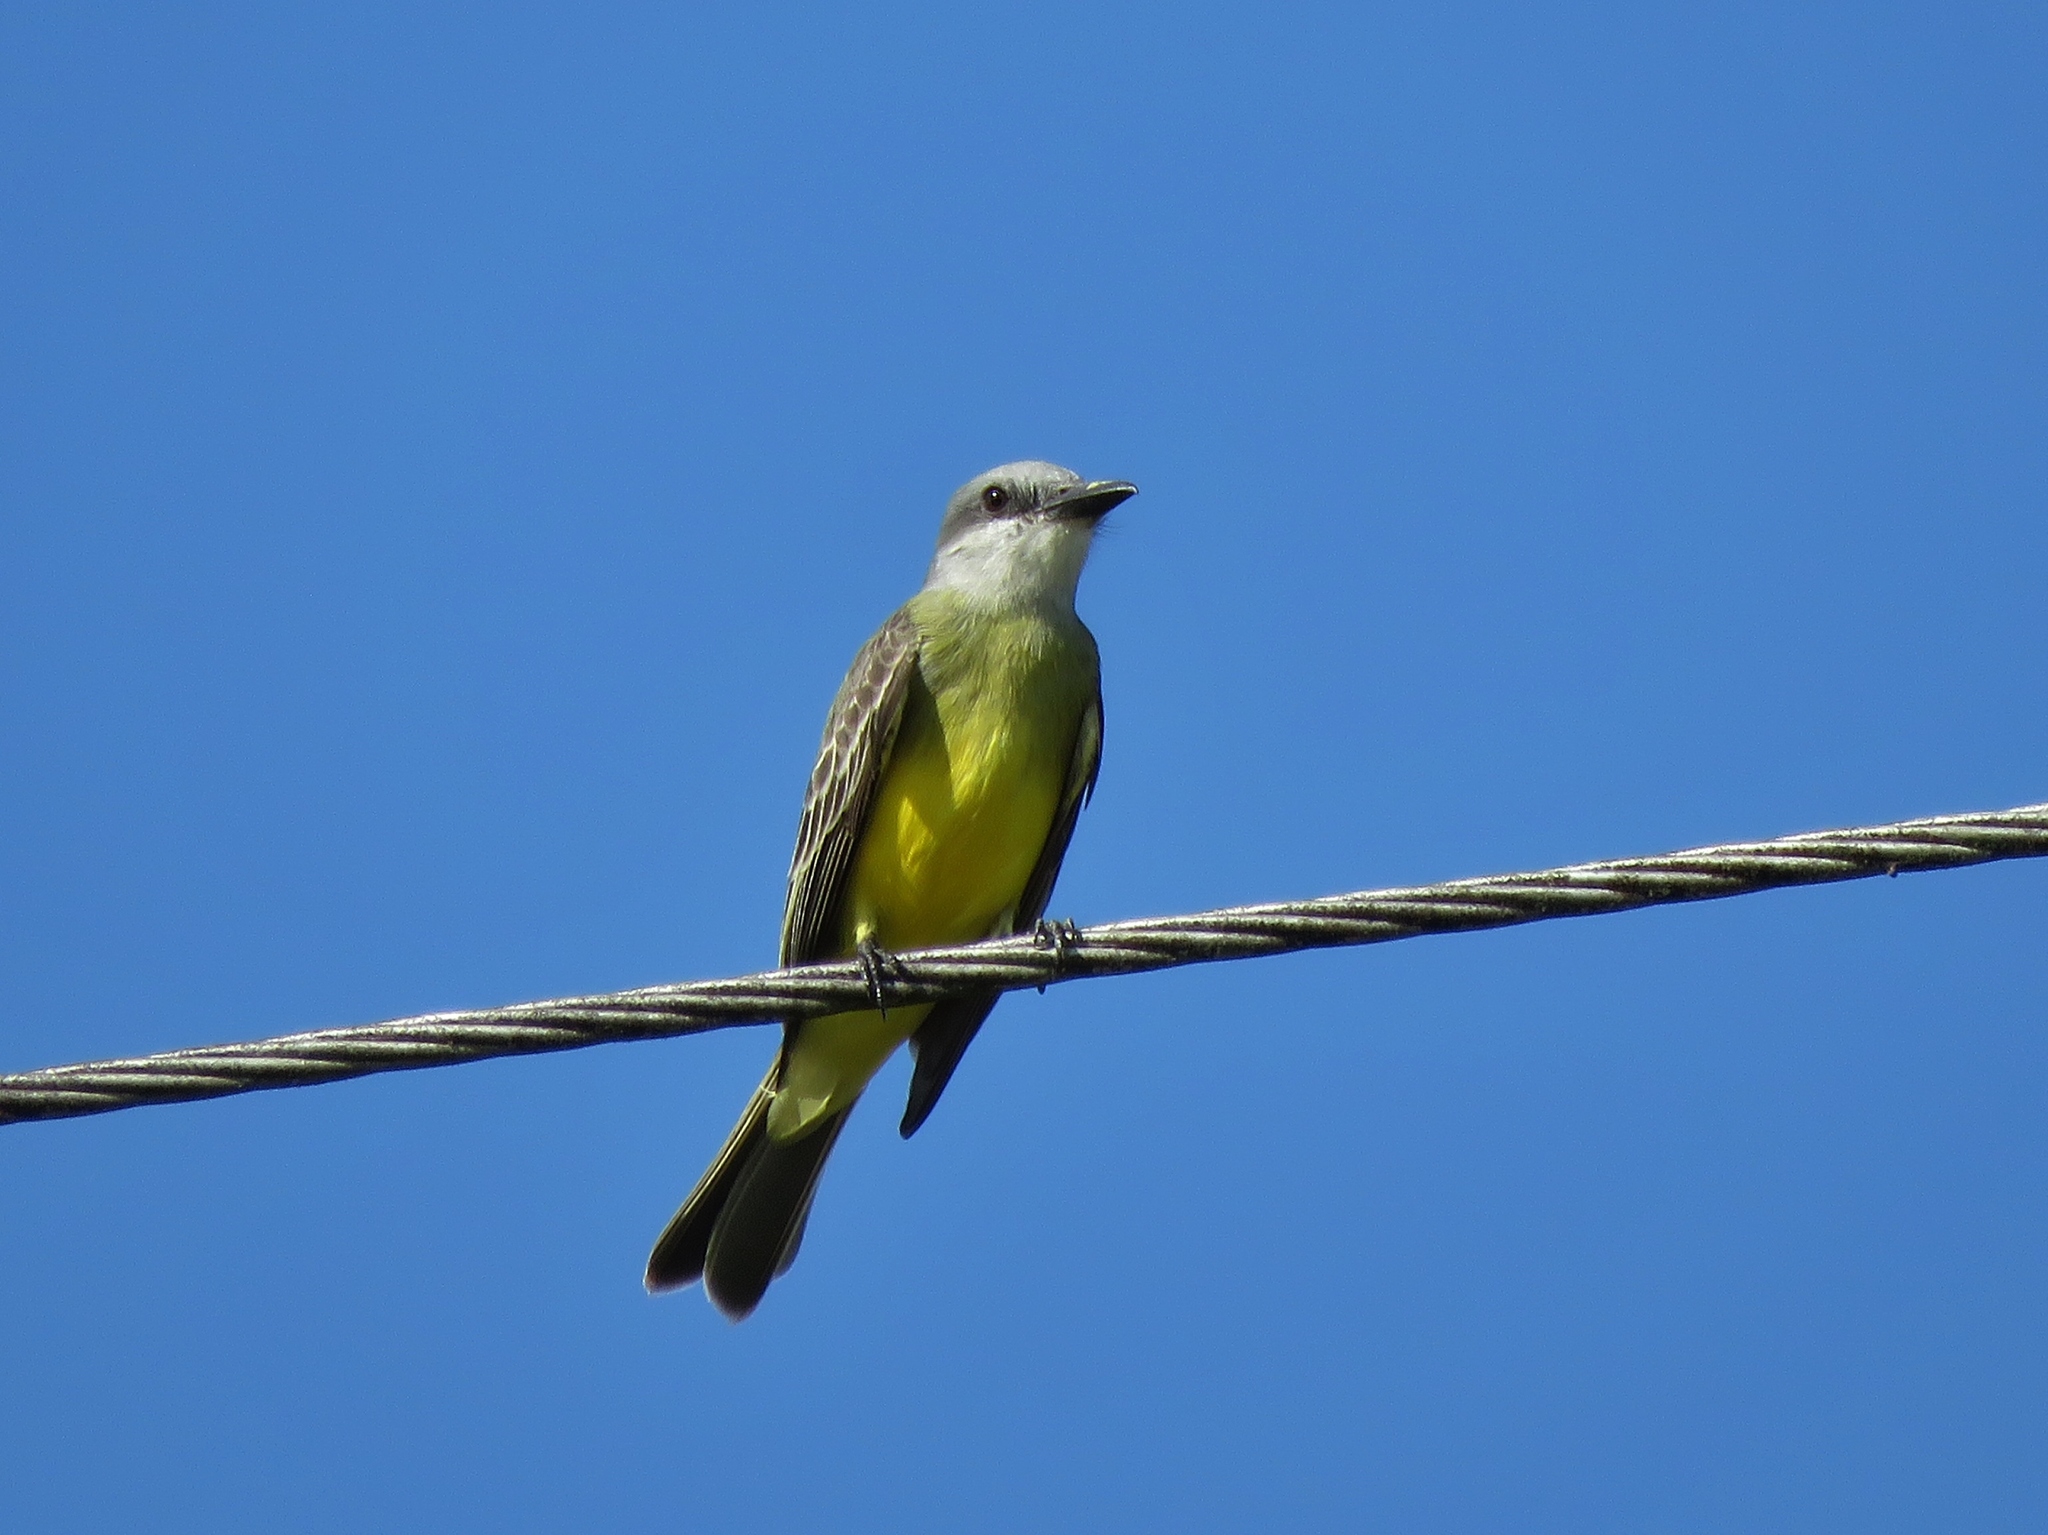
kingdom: Animalia
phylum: Chordata
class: Aves
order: Passeriformes
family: Tyrannidae
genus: Tyrannus
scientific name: Tyrannus melancholicus
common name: Tropical kingbird
